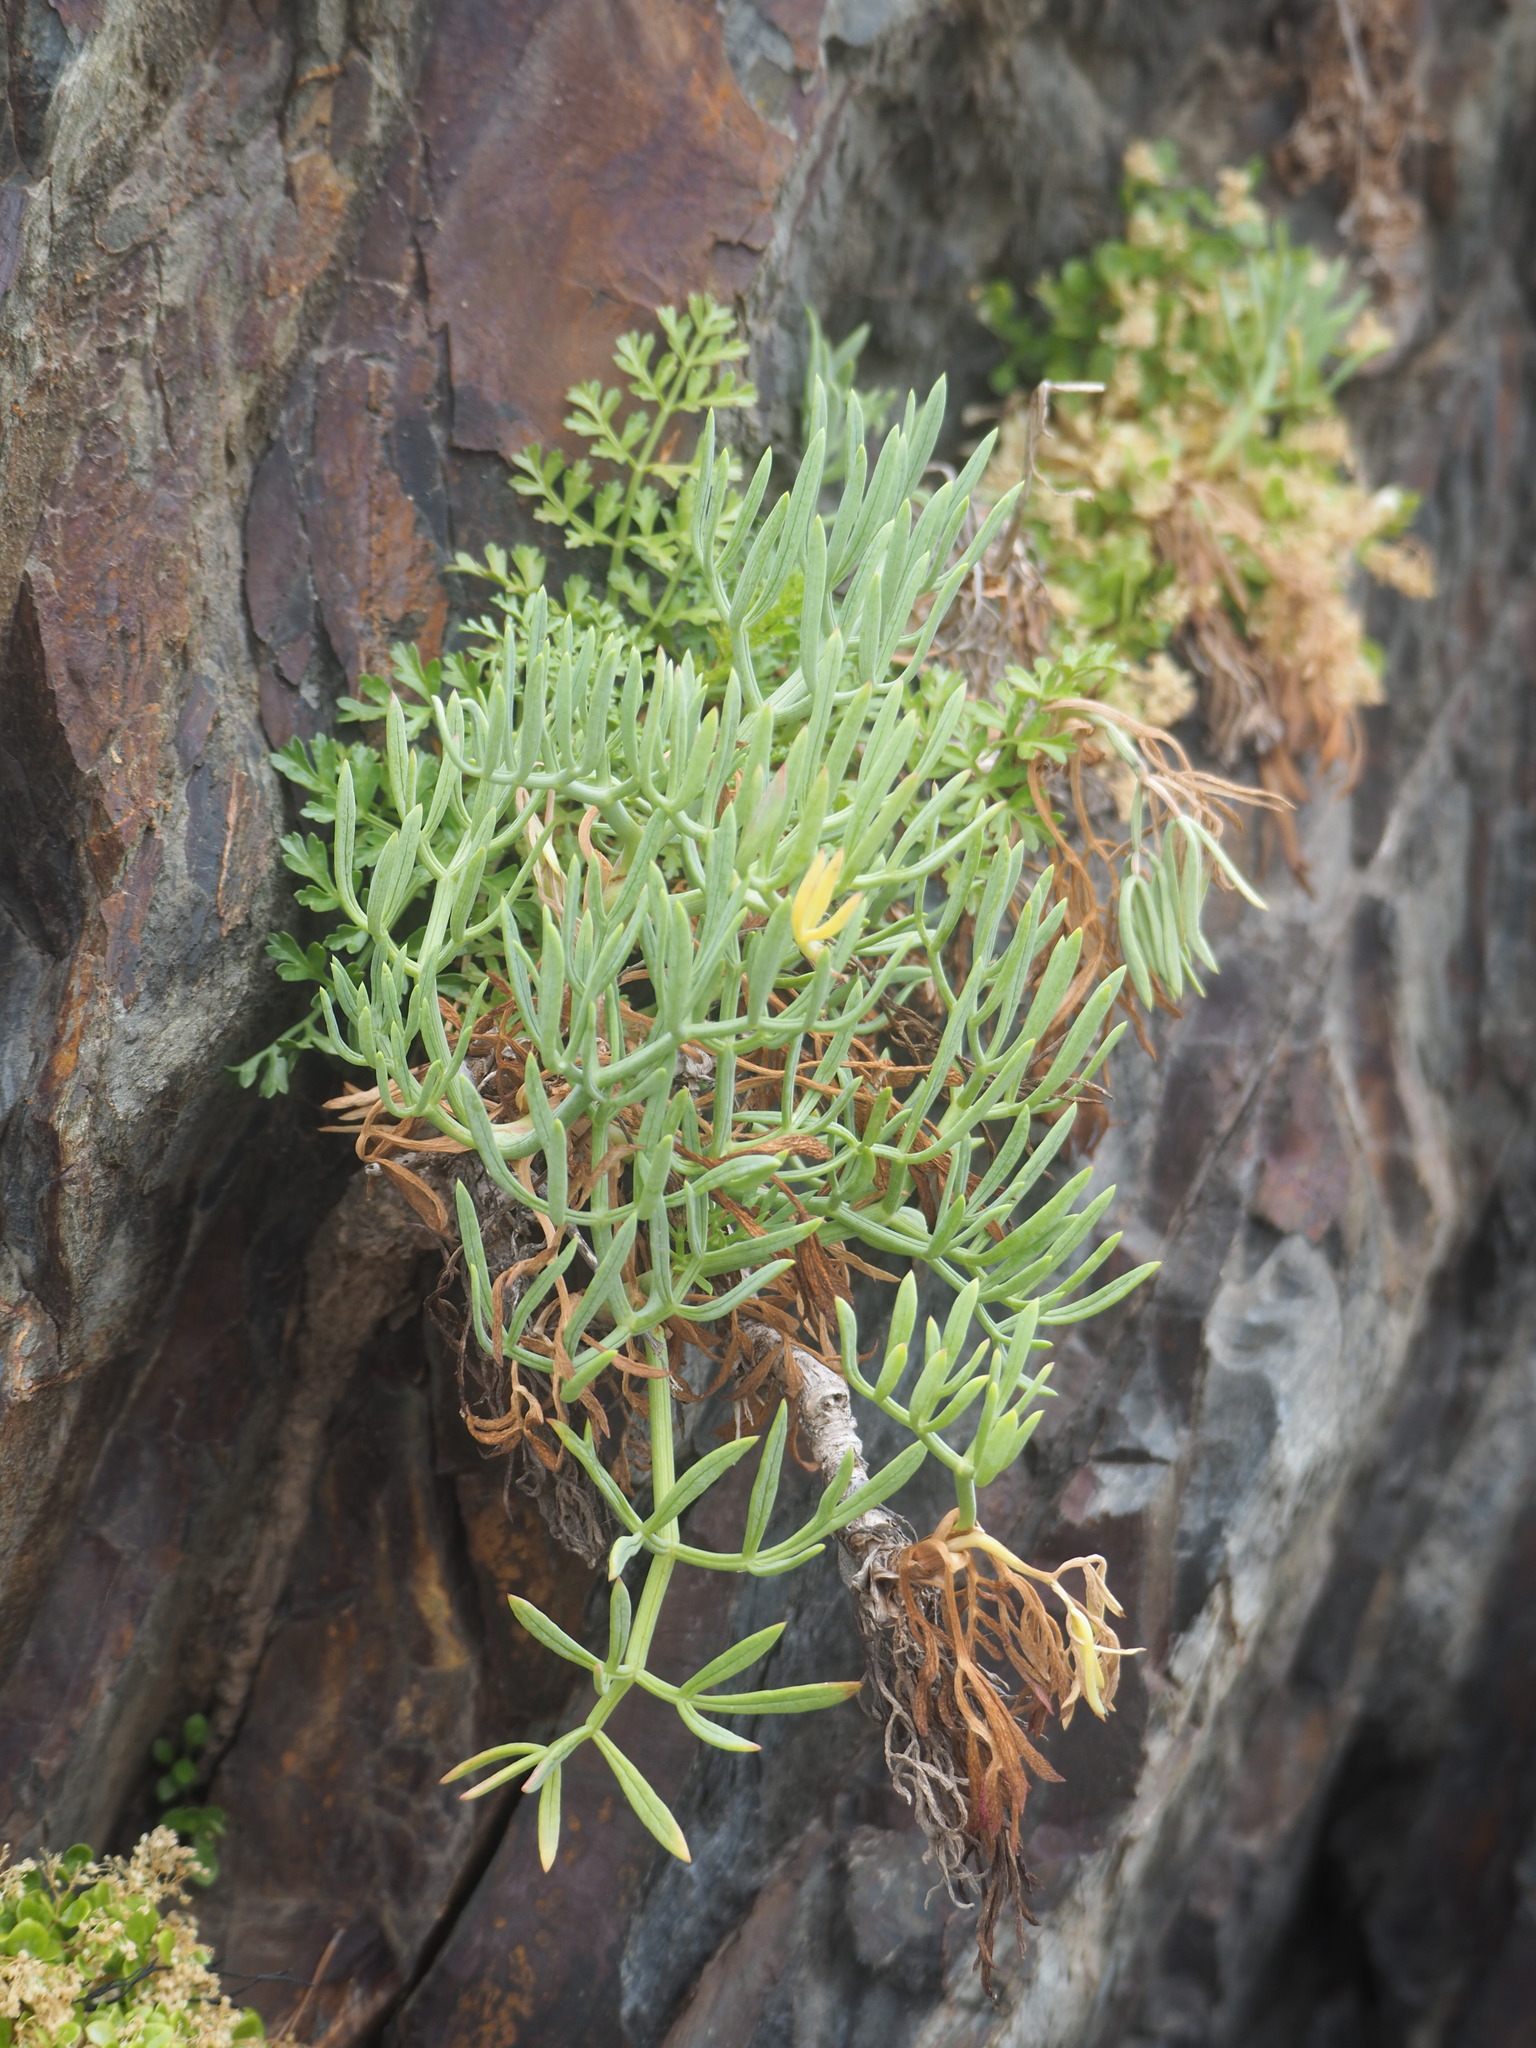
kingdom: Plantae
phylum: Tracheophyta
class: Magnoliopsida
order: Apiales
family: Apiaceae
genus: Crithmum
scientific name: Crithmum maritimum
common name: Rock samphire
